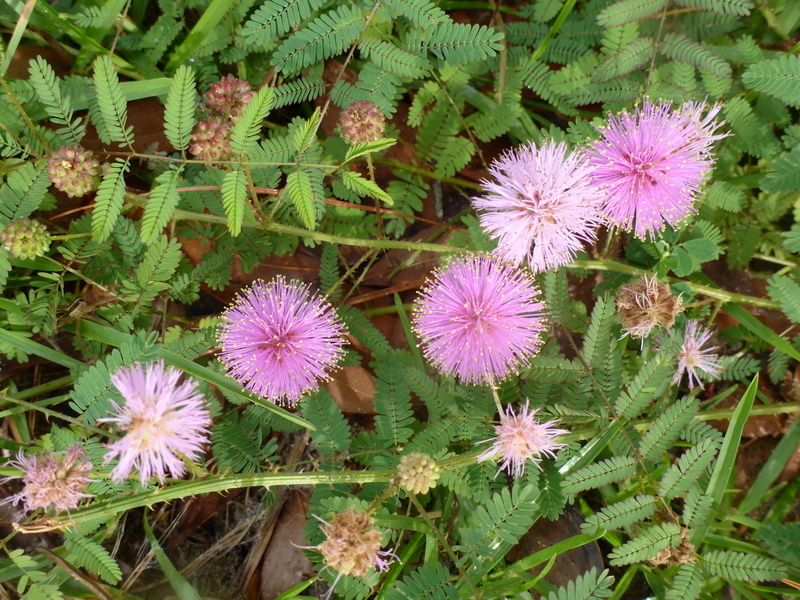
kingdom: Plantae
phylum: Tracheophyta
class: Magnoliopsida
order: Fabales
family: Fabaceae
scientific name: Fabaceae
